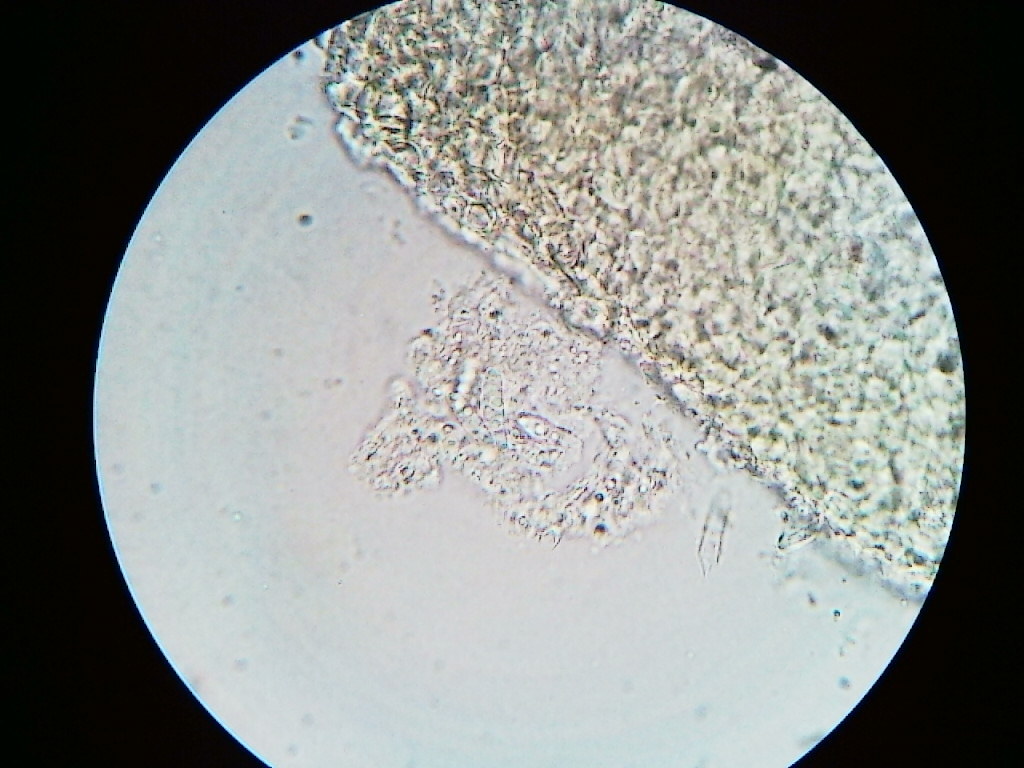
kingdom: Fungi
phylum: Ascomycota
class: Sordariomycetes
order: Hypocreales
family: Nectriaceae
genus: Nectria
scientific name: Nectria cinnabarina
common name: Coral spot
